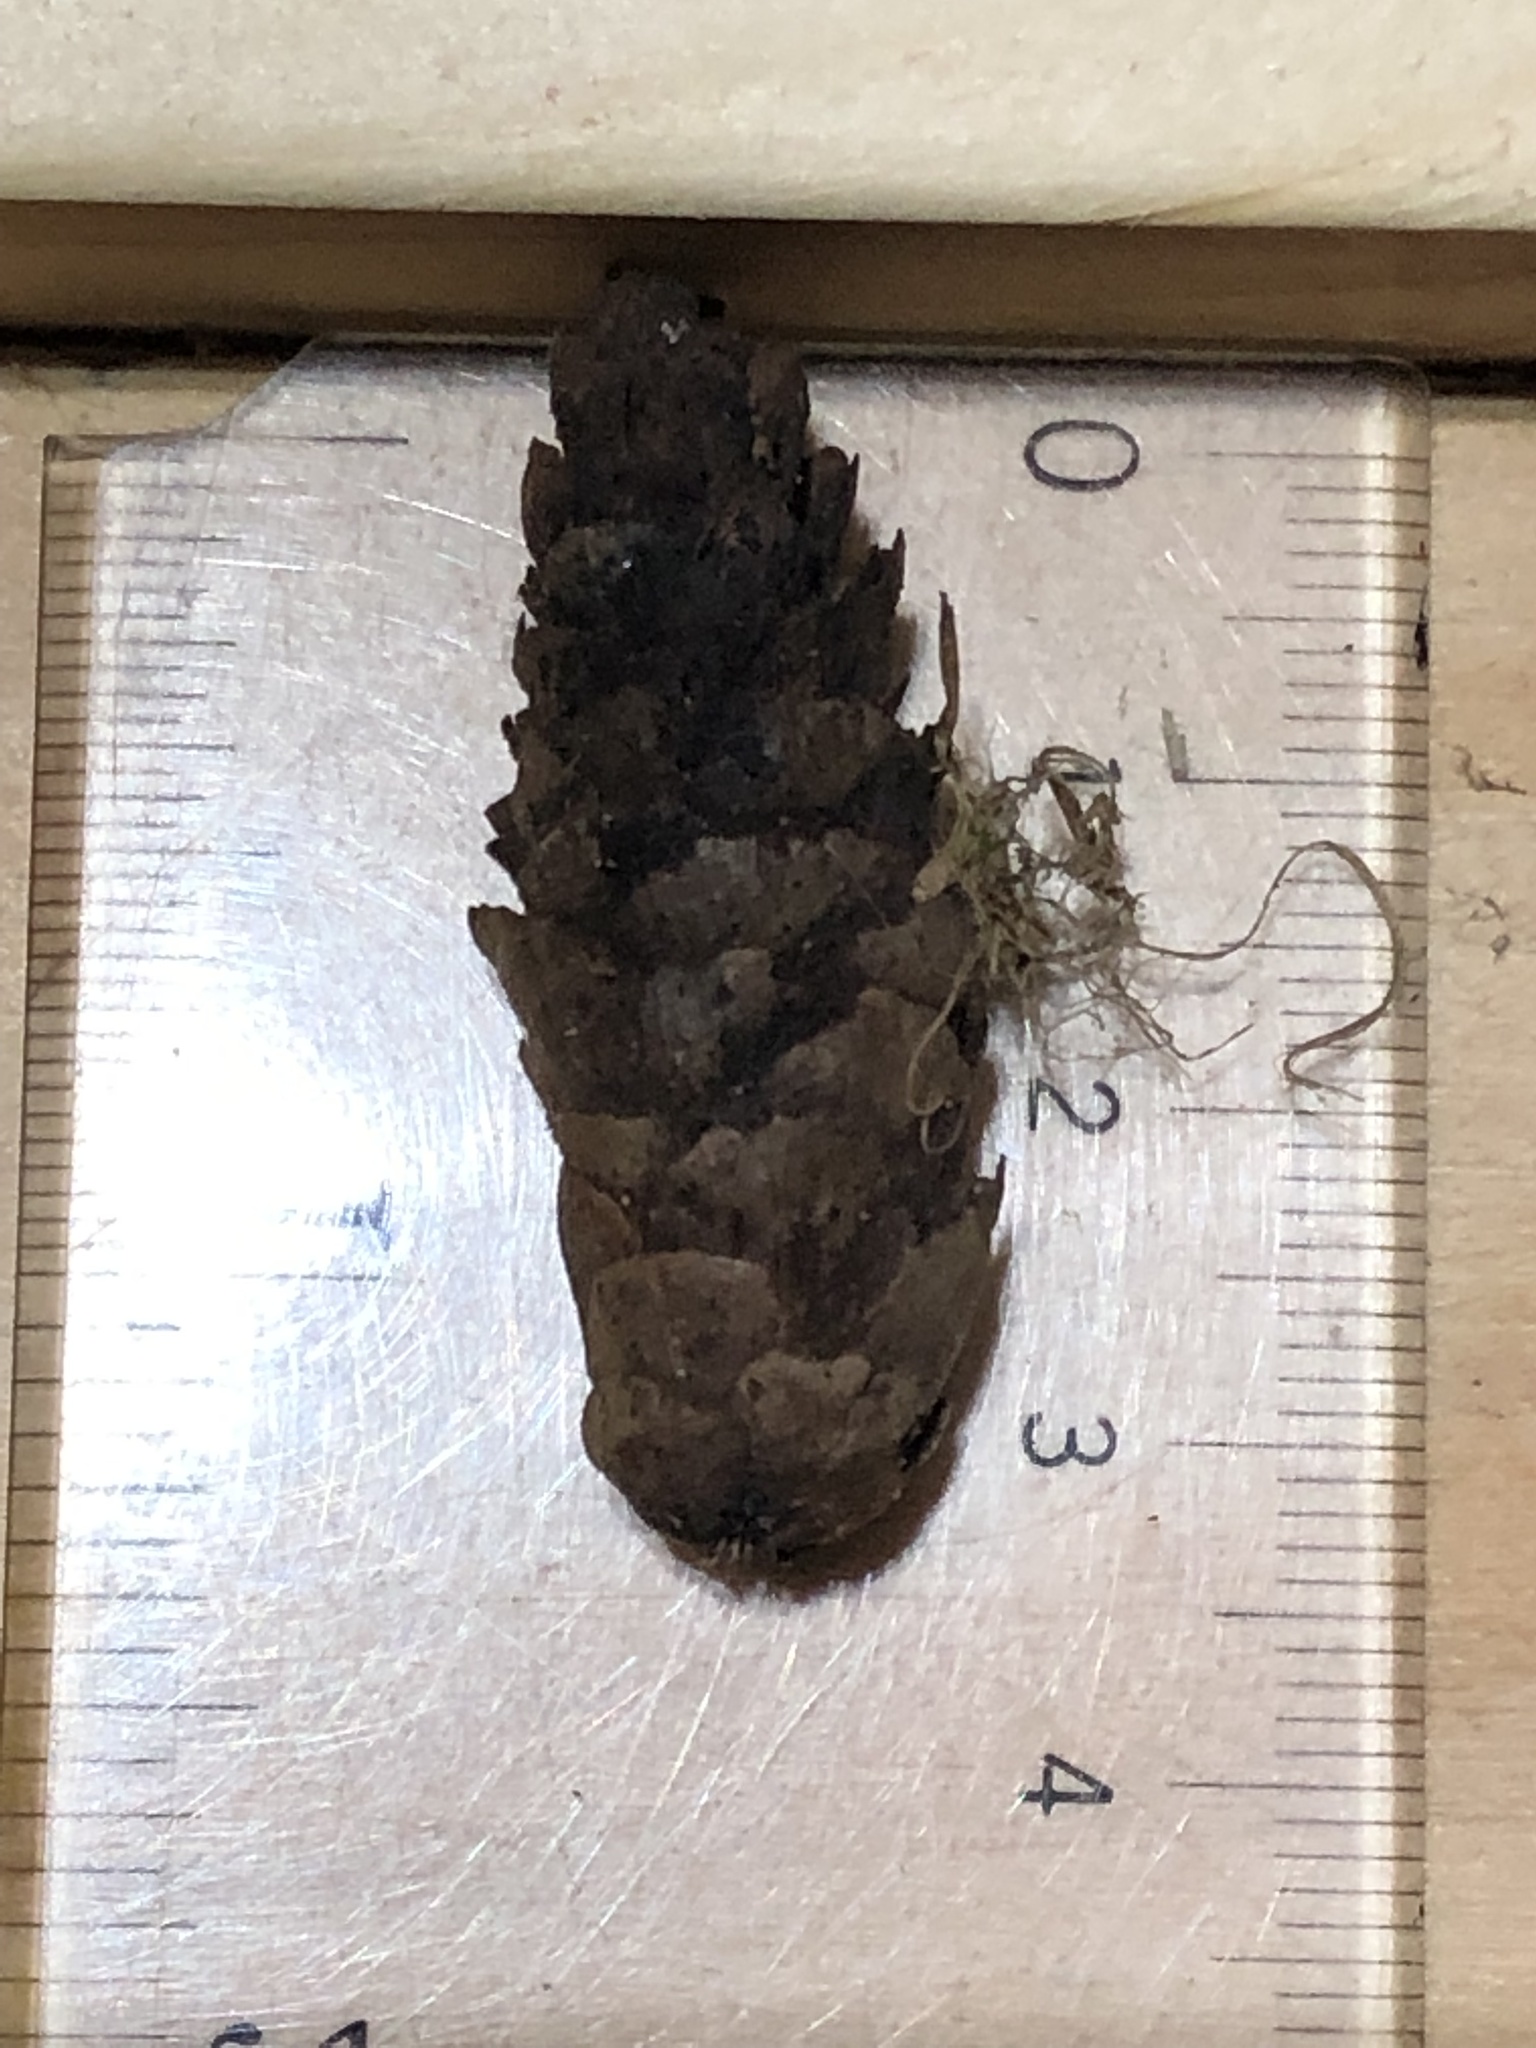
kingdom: Plantae
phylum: Tracheophyta
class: Pinopsida
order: Pinales
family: Pinaceae
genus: Picea
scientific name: Picea glauca
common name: White spruce
